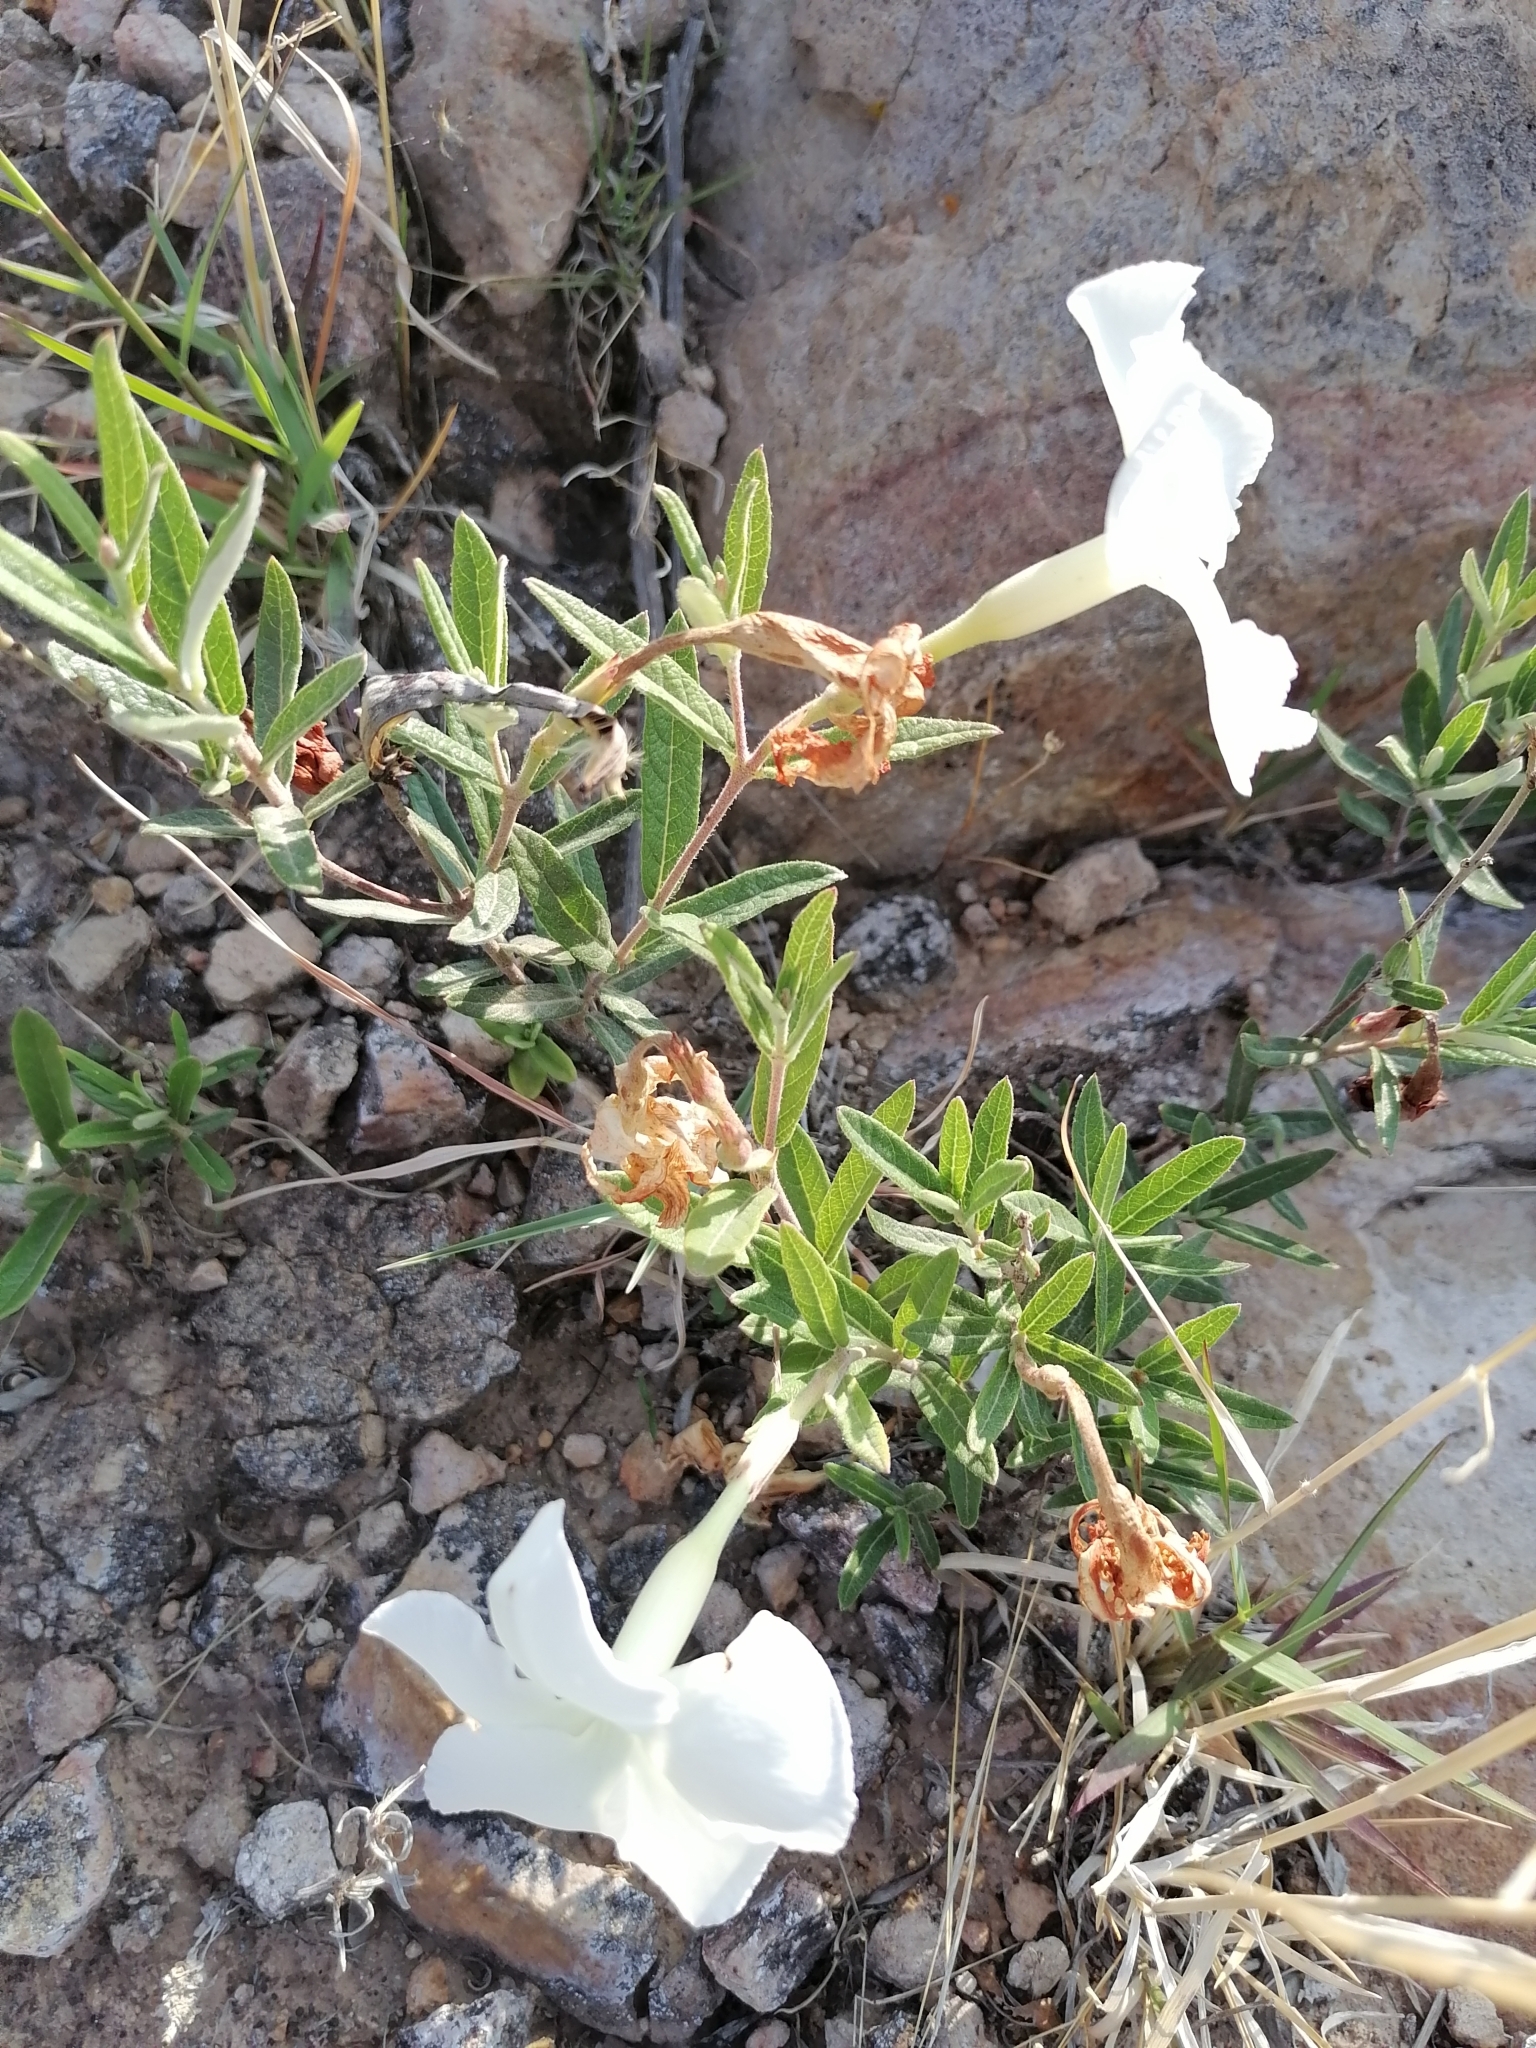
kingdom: Plantae
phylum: Tracheophyta
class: Magnoliopsida
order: Gentianales
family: Apocynaceae
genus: Mandevilla
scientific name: Mandevilla hypoleuca
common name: Davis mountain rocktrumpet
